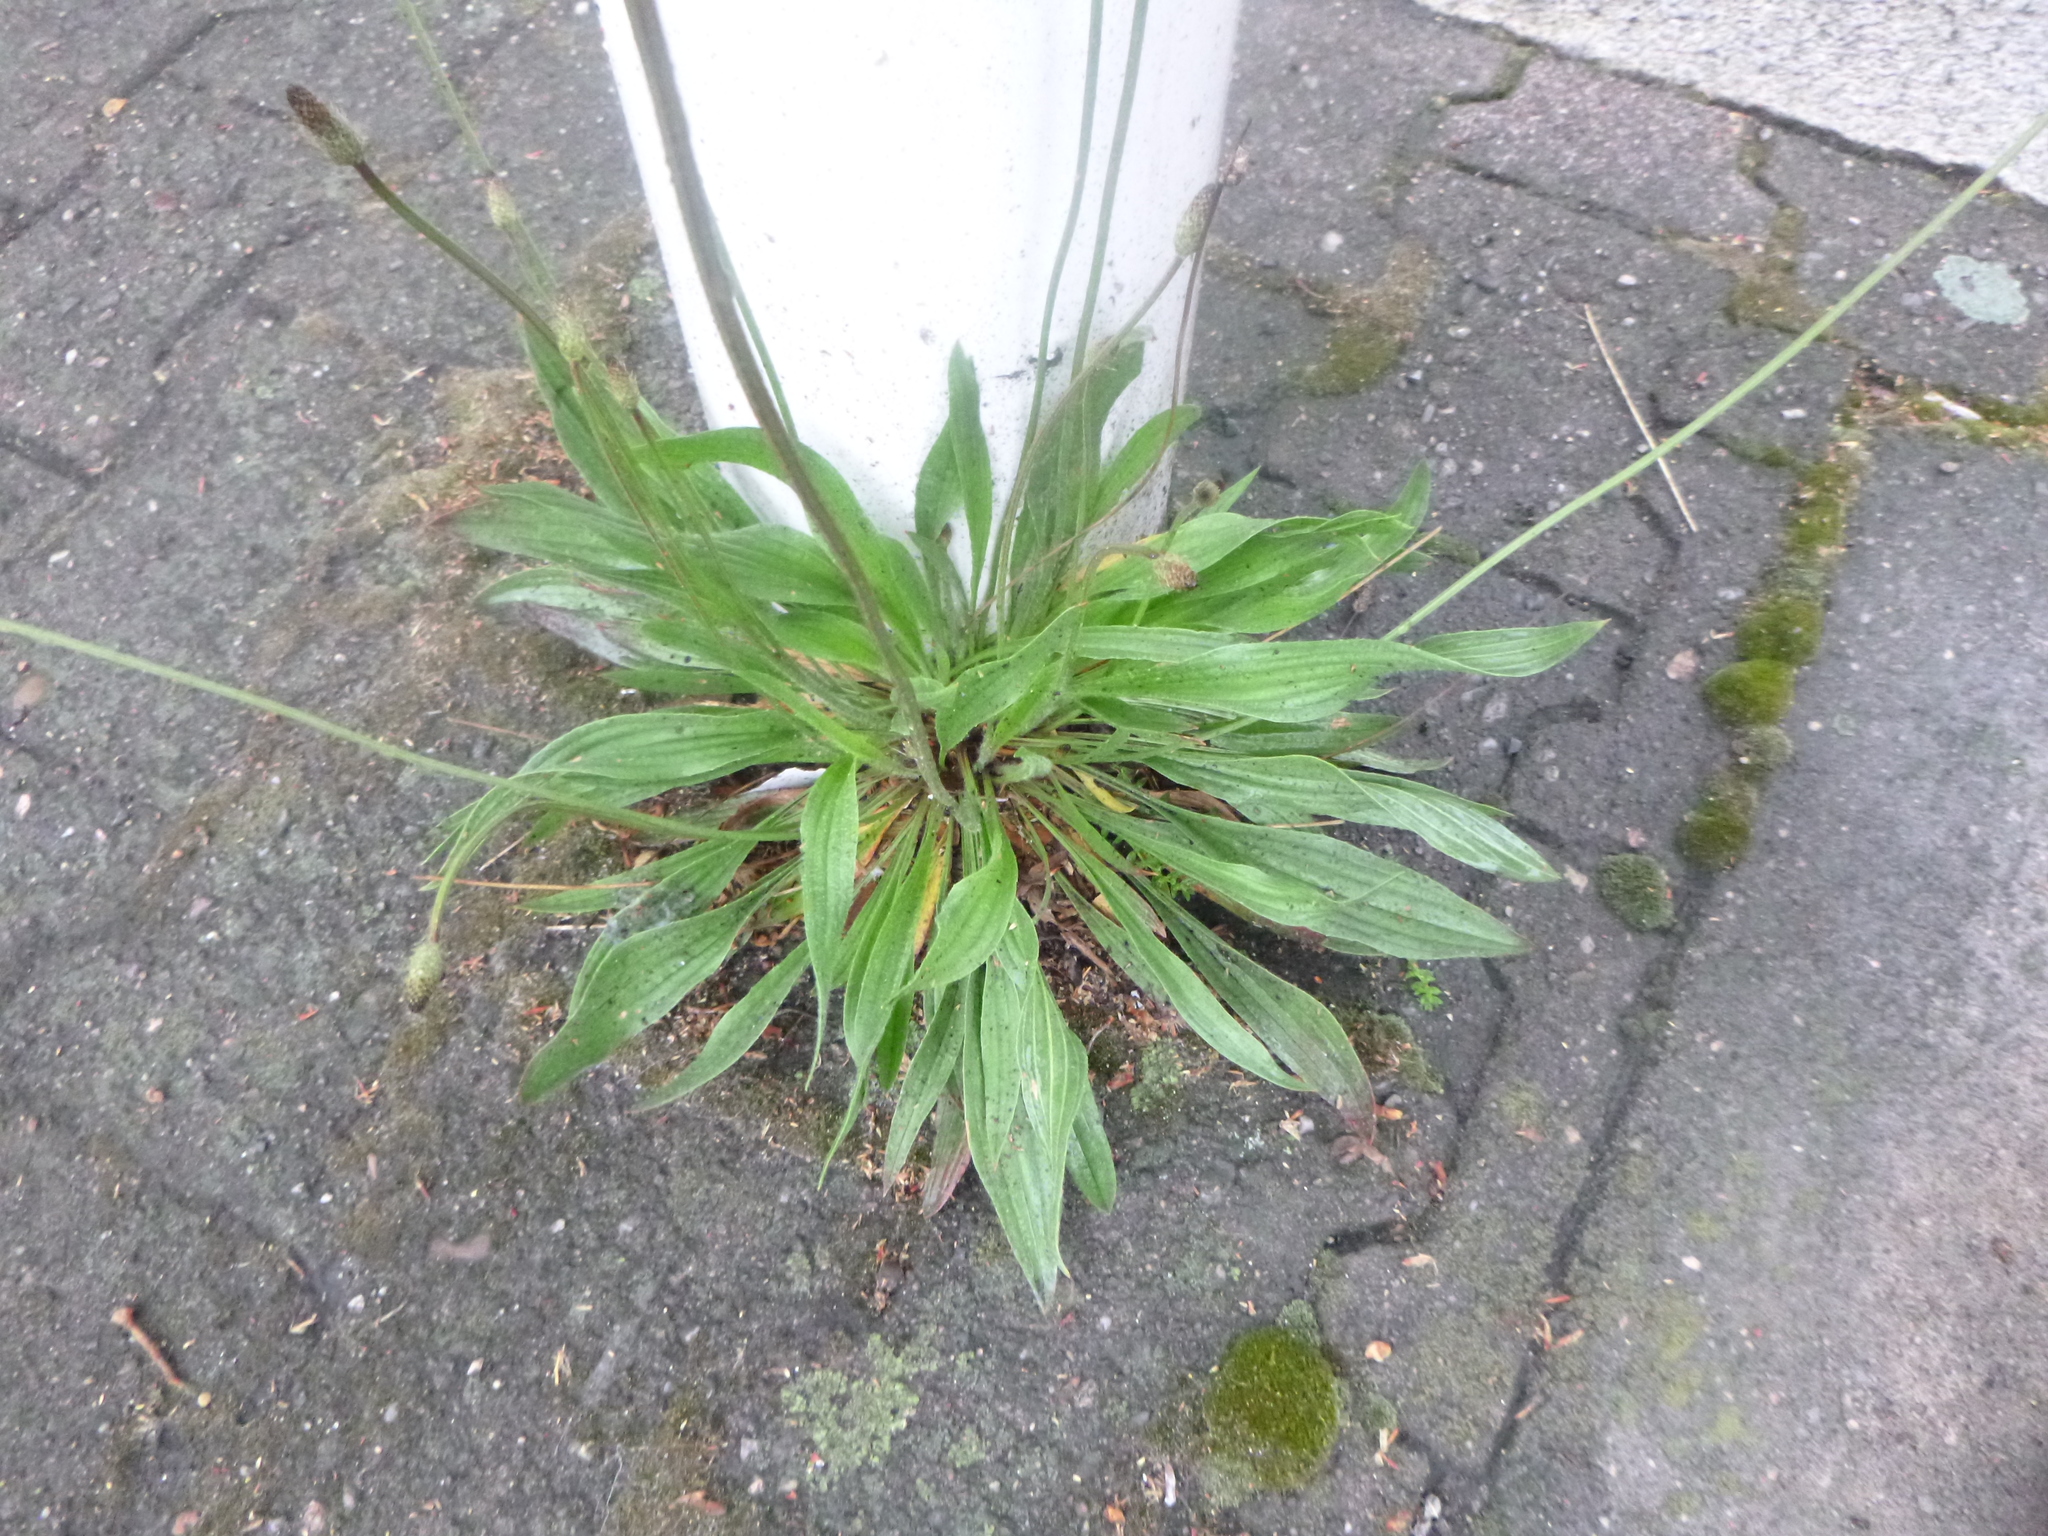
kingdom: Plantae
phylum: Tracheophyta
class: Magnoliopsida
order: Lamiales
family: Plantaginaceae
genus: Plantago
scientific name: Plantago lanceolata
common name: Ribwort plantain
